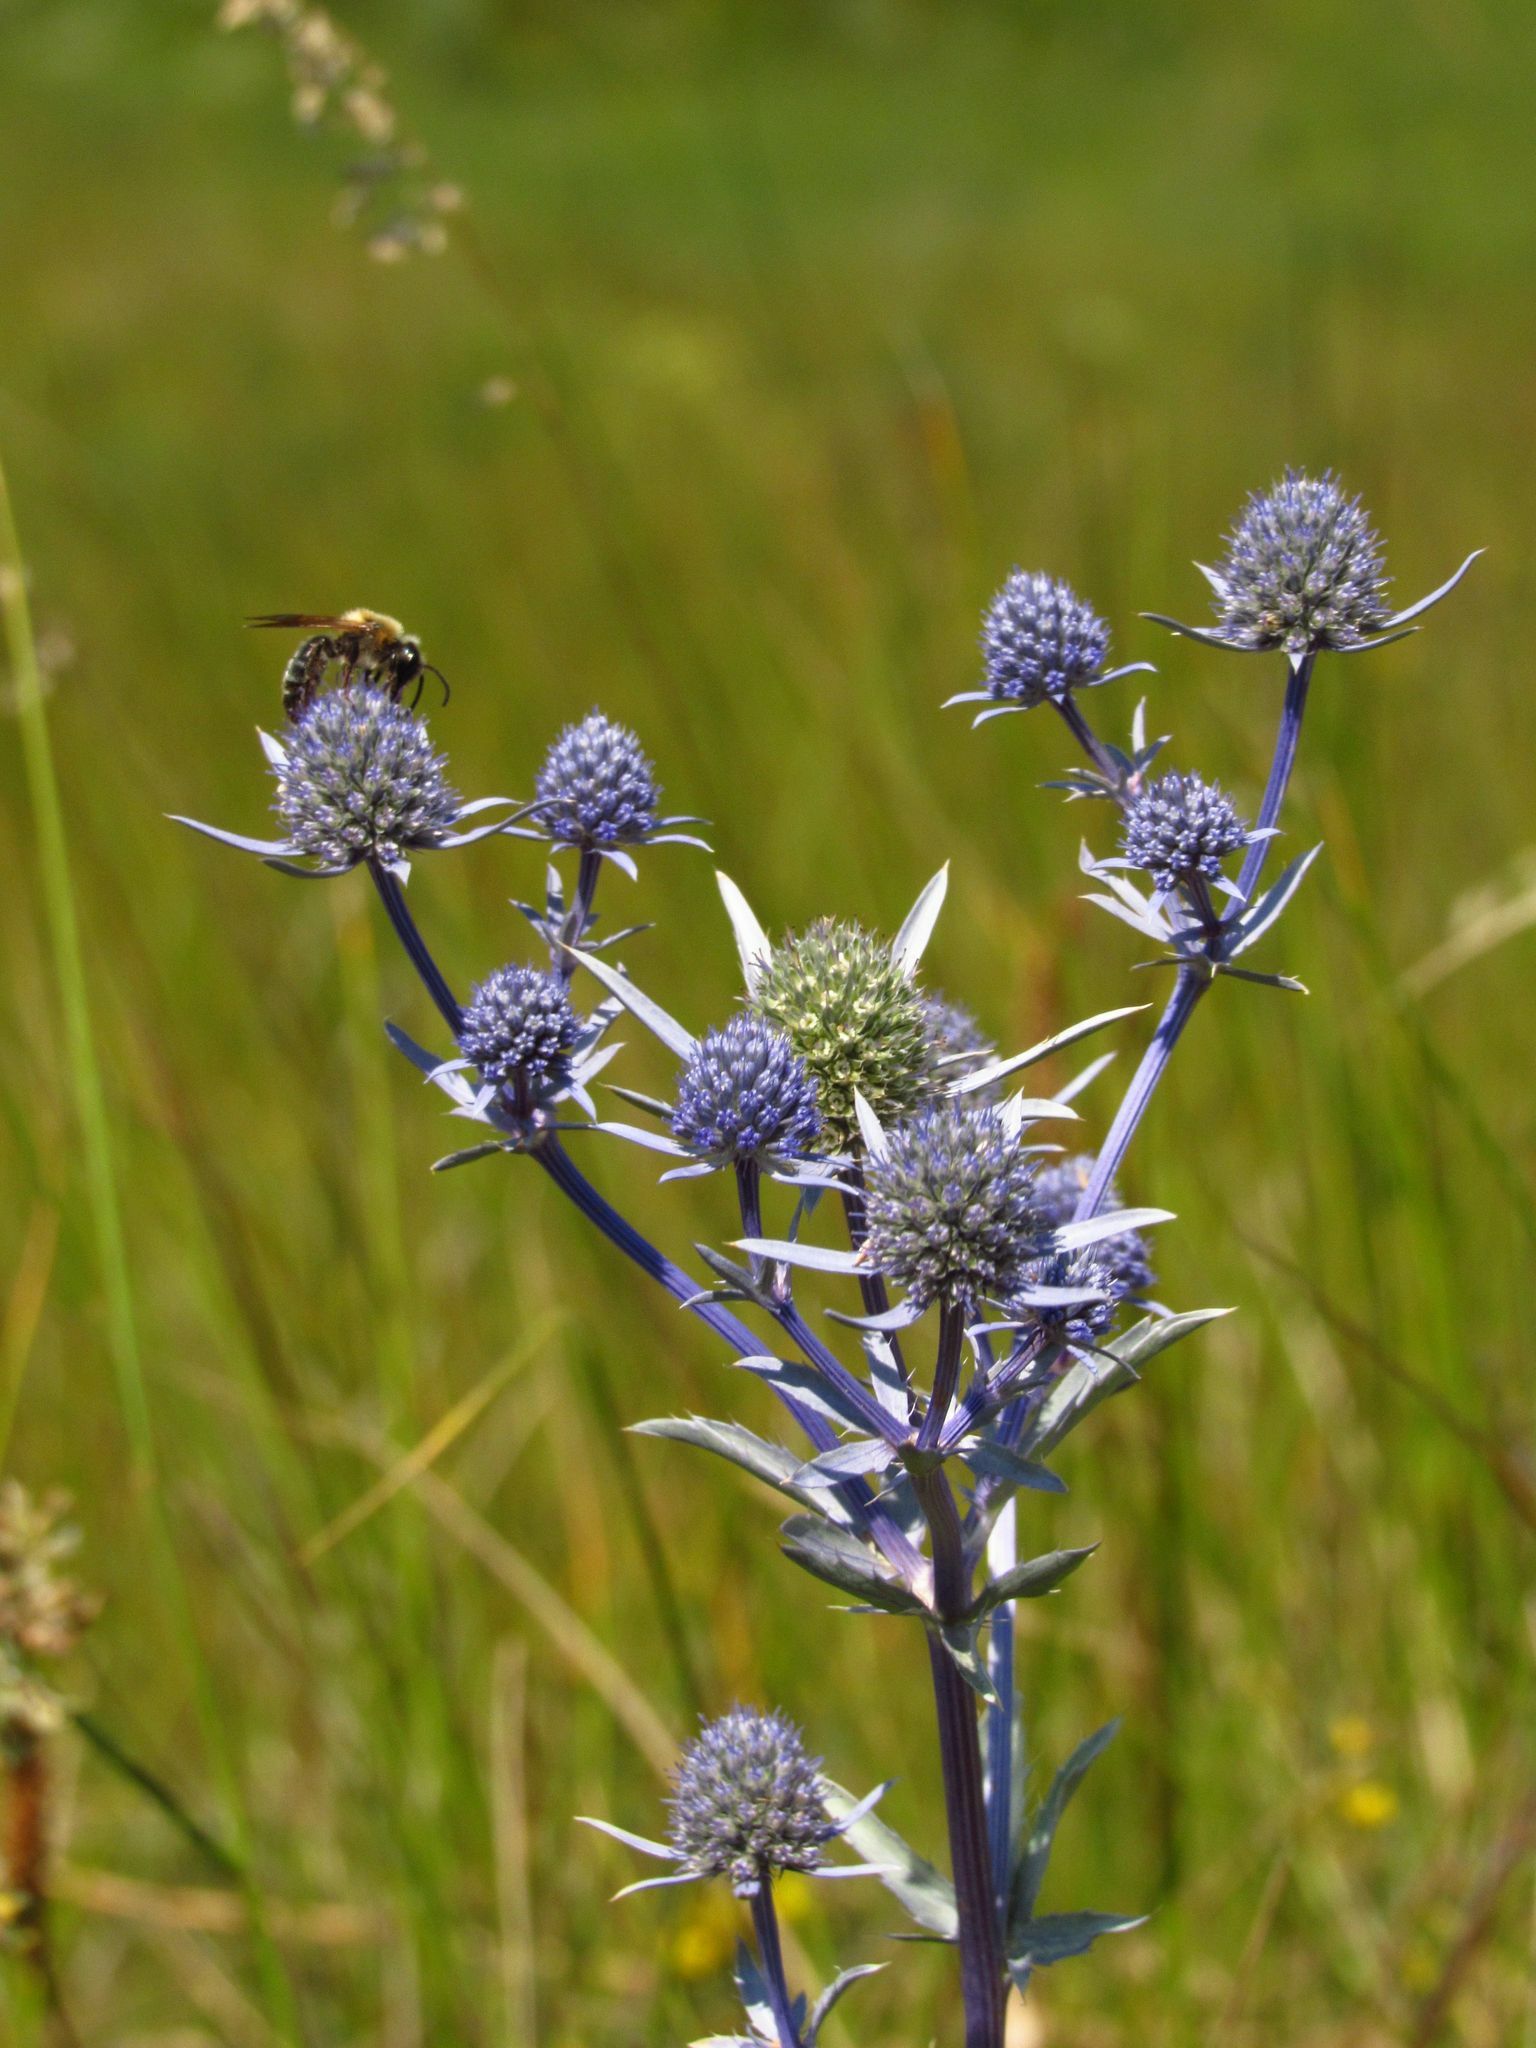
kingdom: Plantae
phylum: Tracheophyta
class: Magnoliopsida
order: Apiales
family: Apiaceae
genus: Eryngium
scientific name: Eryngium planum
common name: Blue eryngo
